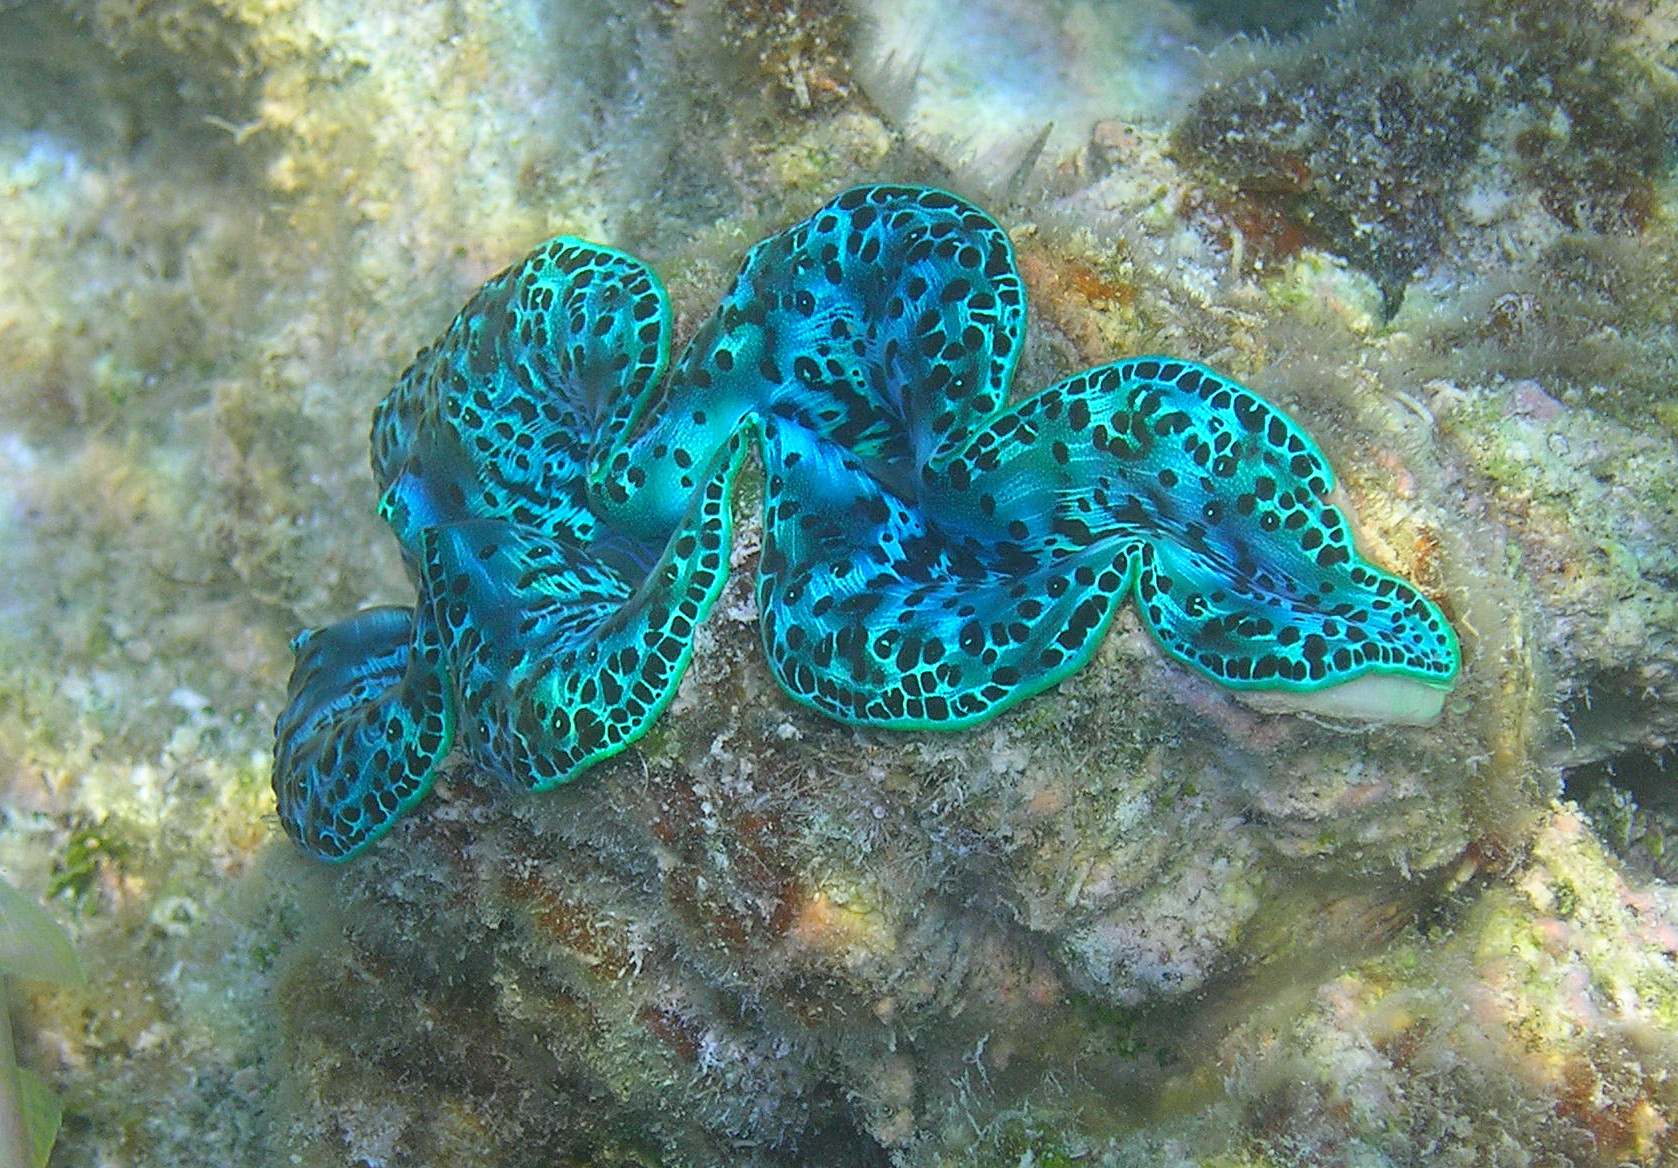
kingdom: Animalia
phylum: Mollusca
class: Bivalvia
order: Cardiida
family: Cardiidae
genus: Tridacna
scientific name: Tridacna maxima
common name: Small giant clam
